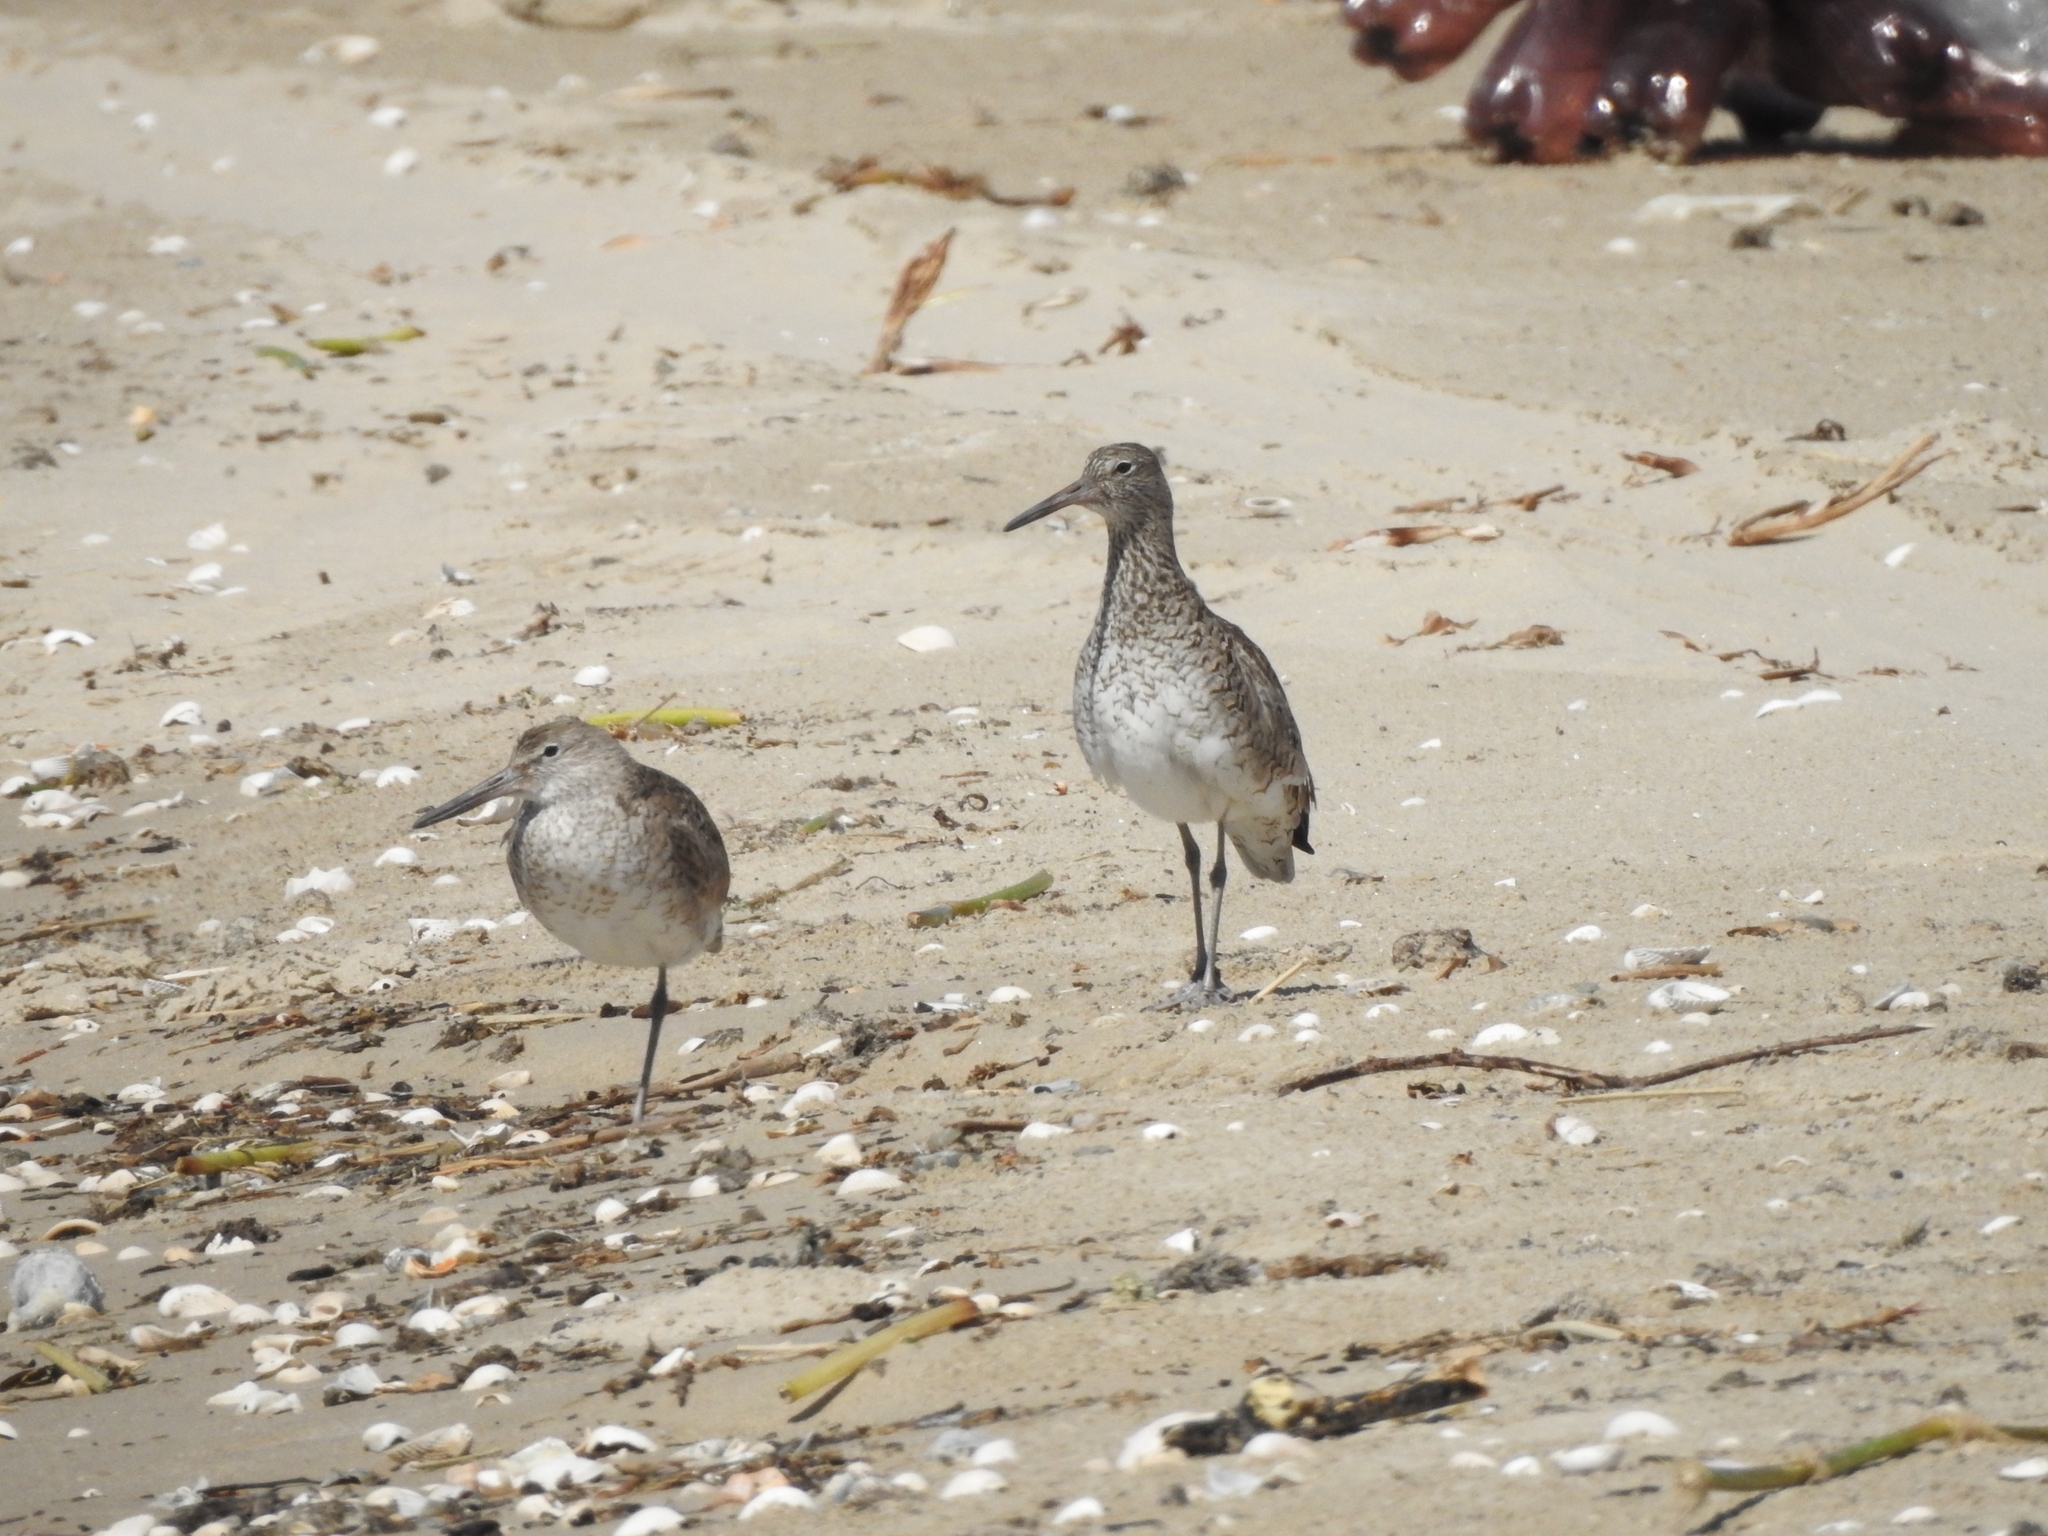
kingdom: Animalia
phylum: Chordata
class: Aves
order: Charadriiformes
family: Scolopacidae
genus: Tringa
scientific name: Tringa semipalmata
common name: Willet
